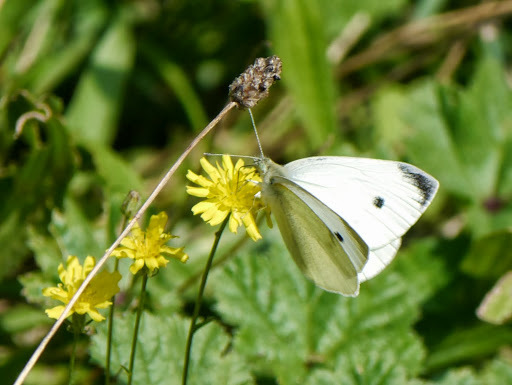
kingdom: Animalia
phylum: Arthropoda
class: Insecta
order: Lepidoptera
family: Pieridae
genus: Pieris
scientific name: Pieris rapae
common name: Small white
